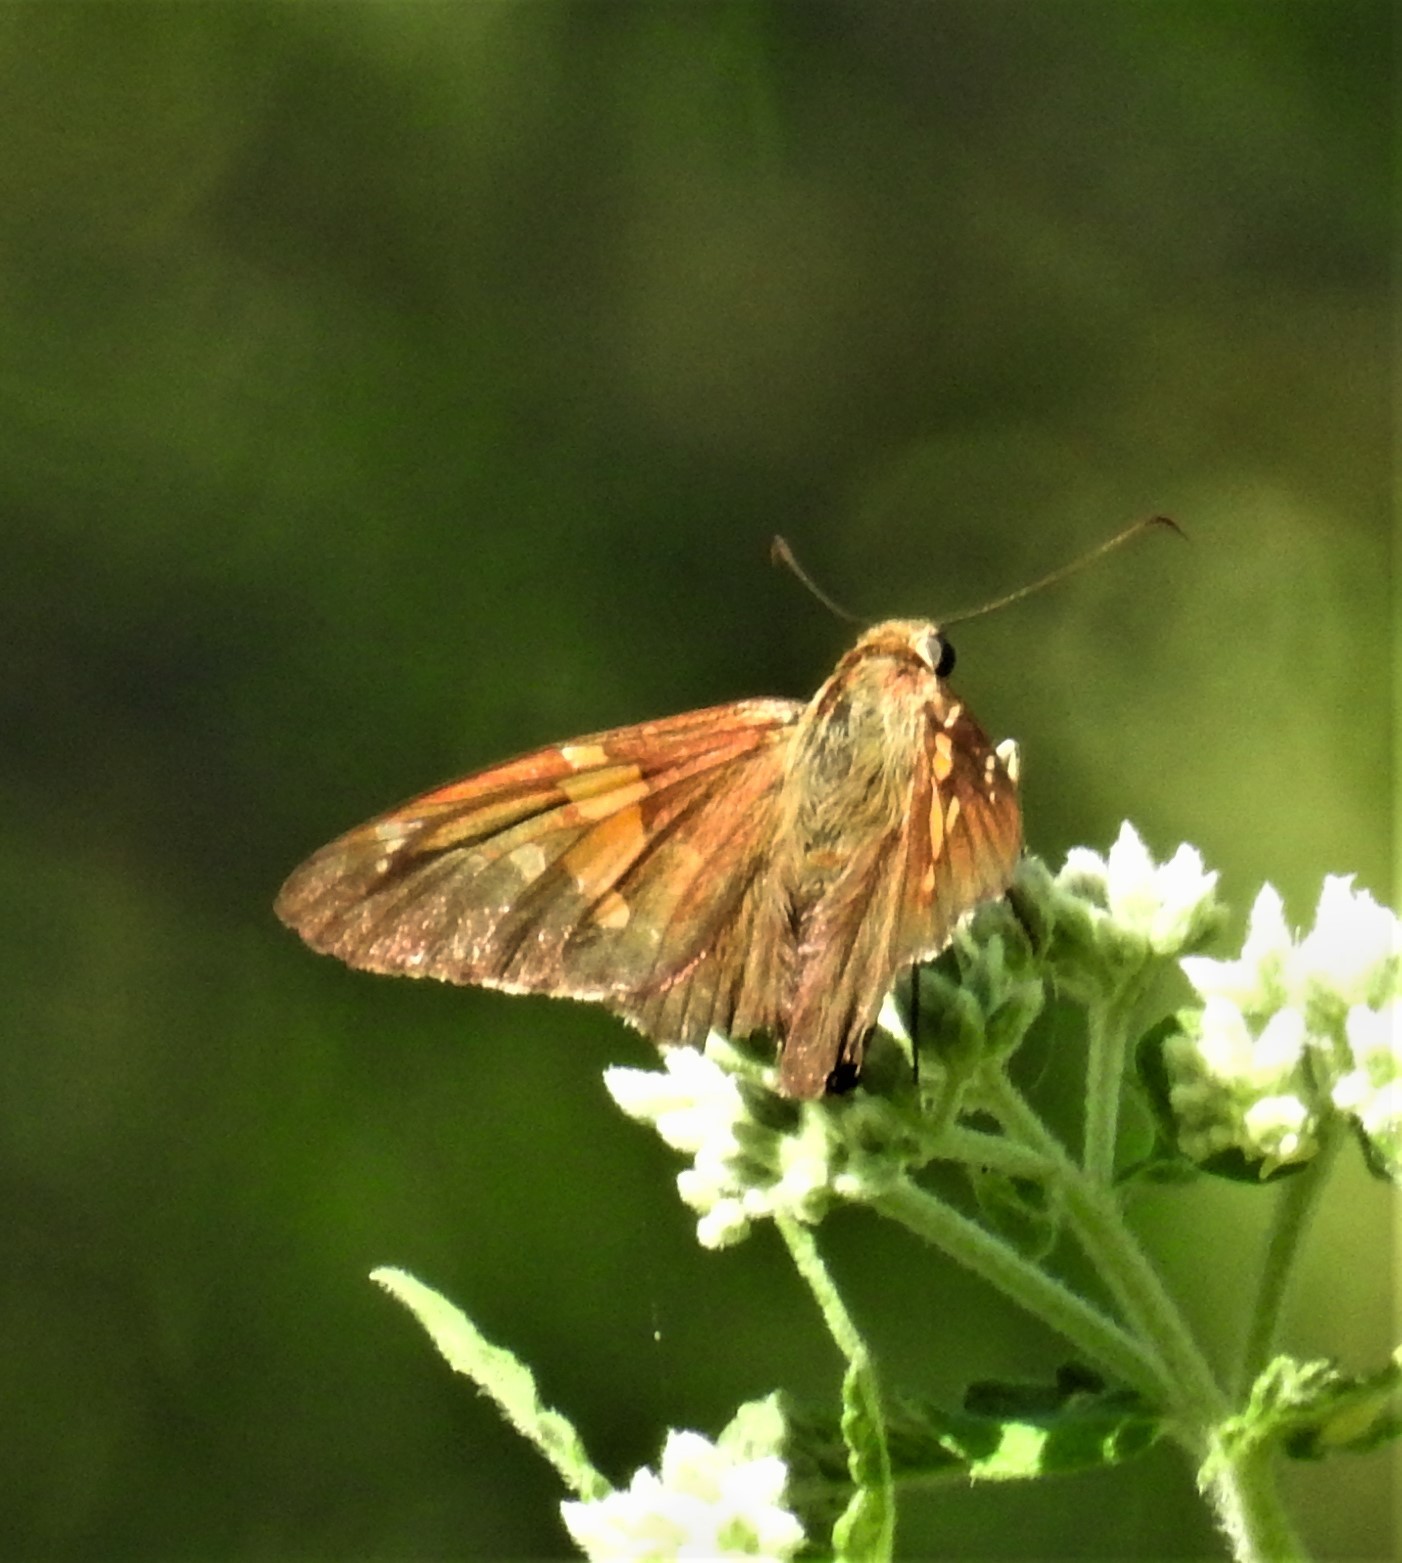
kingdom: Animalia
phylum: Arthropoda
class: Insecta
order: Lepidoptera
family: Hesperiidae
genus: Epargyreus
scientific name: Epargyreus clarus
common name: Silver-spotted skipper
